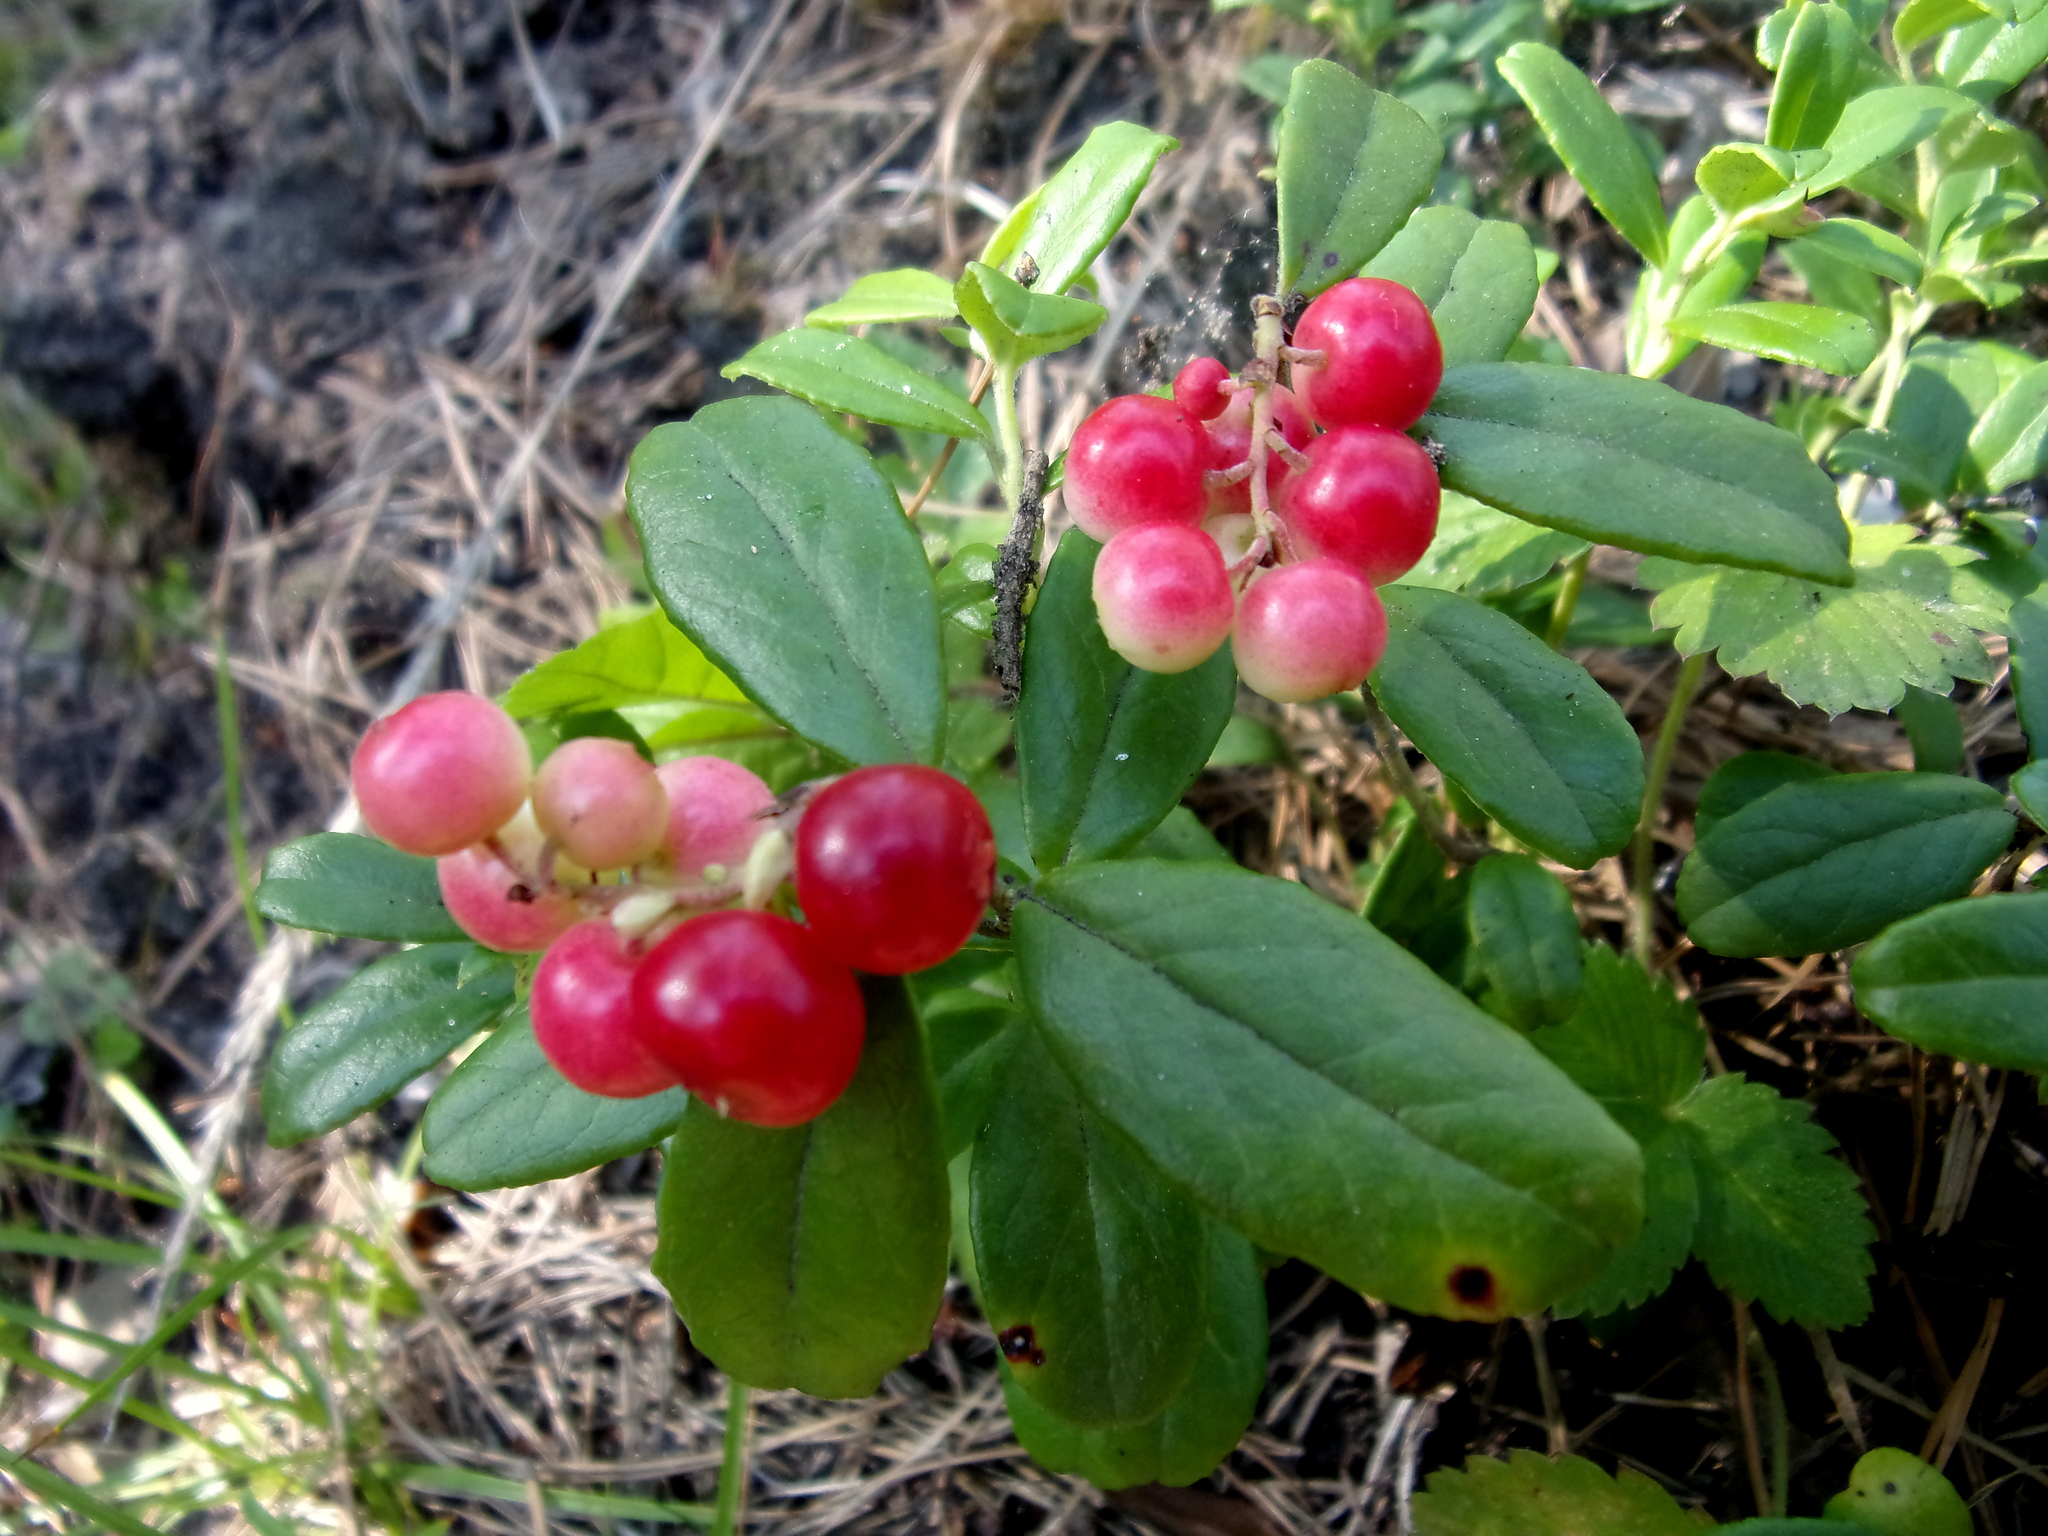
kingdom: Plantae
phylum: Tracheophyta
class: Magnoliopsida
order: Ericales
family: Ericaceae
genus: Vaccinium
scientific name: Vaccinium vitis-idaea
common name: Cowberry
